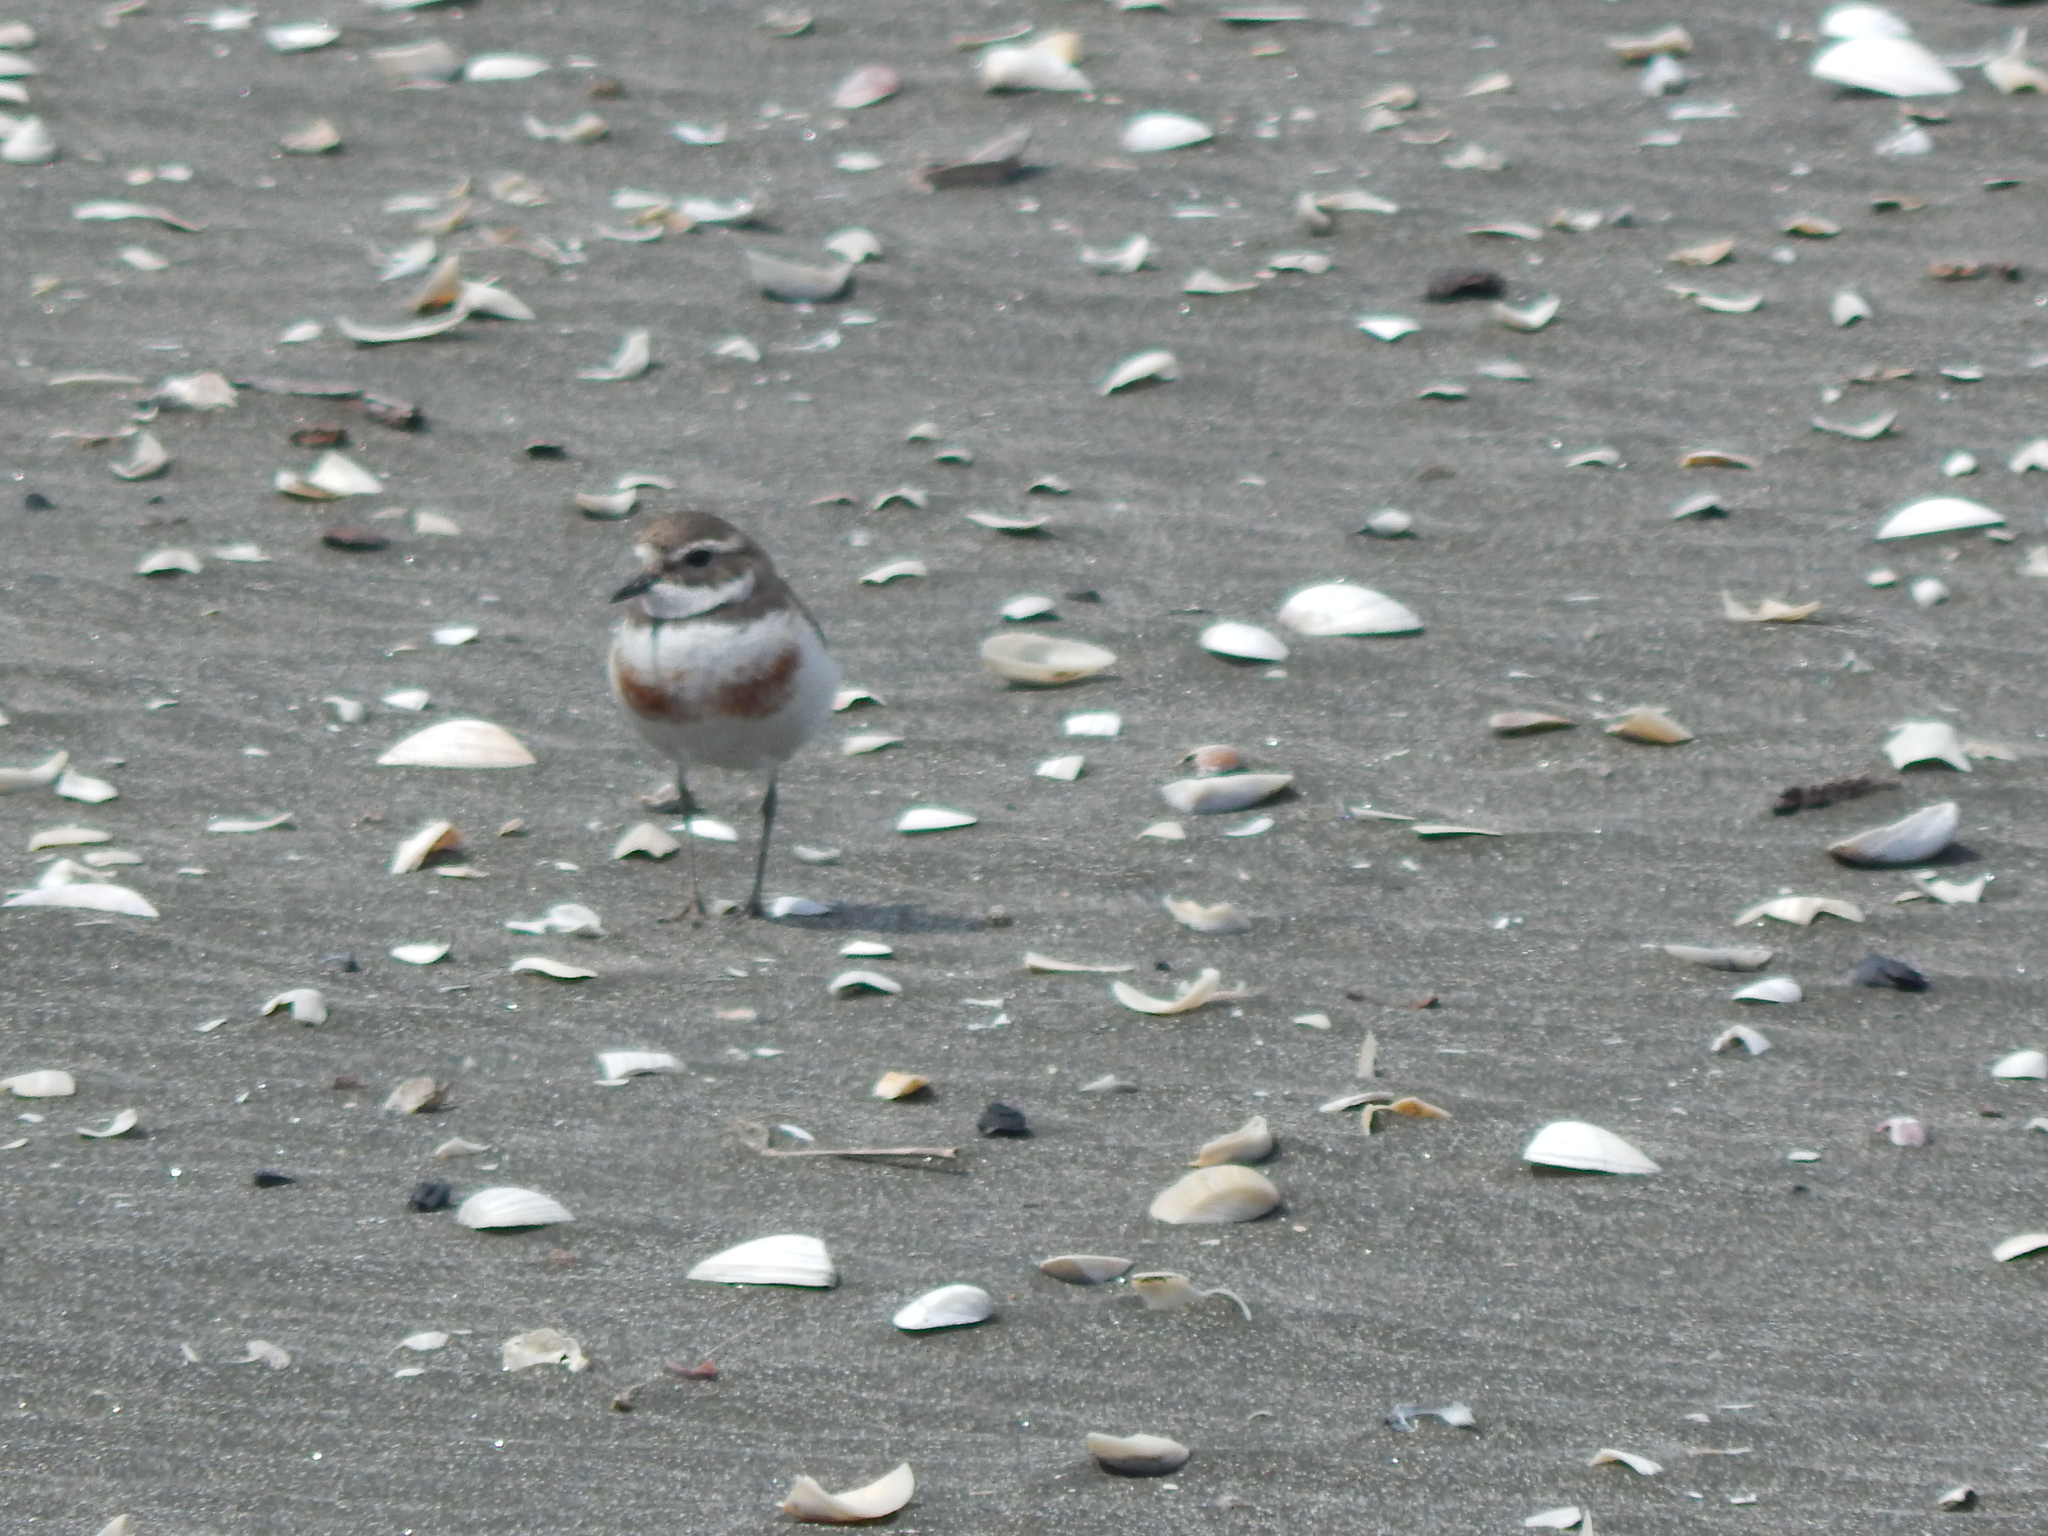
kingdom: Animalia
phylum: Chordata
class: Aves
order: Charadriiformes
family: Charadriidae
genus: Anarhynchus
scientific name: Anarhynchus
